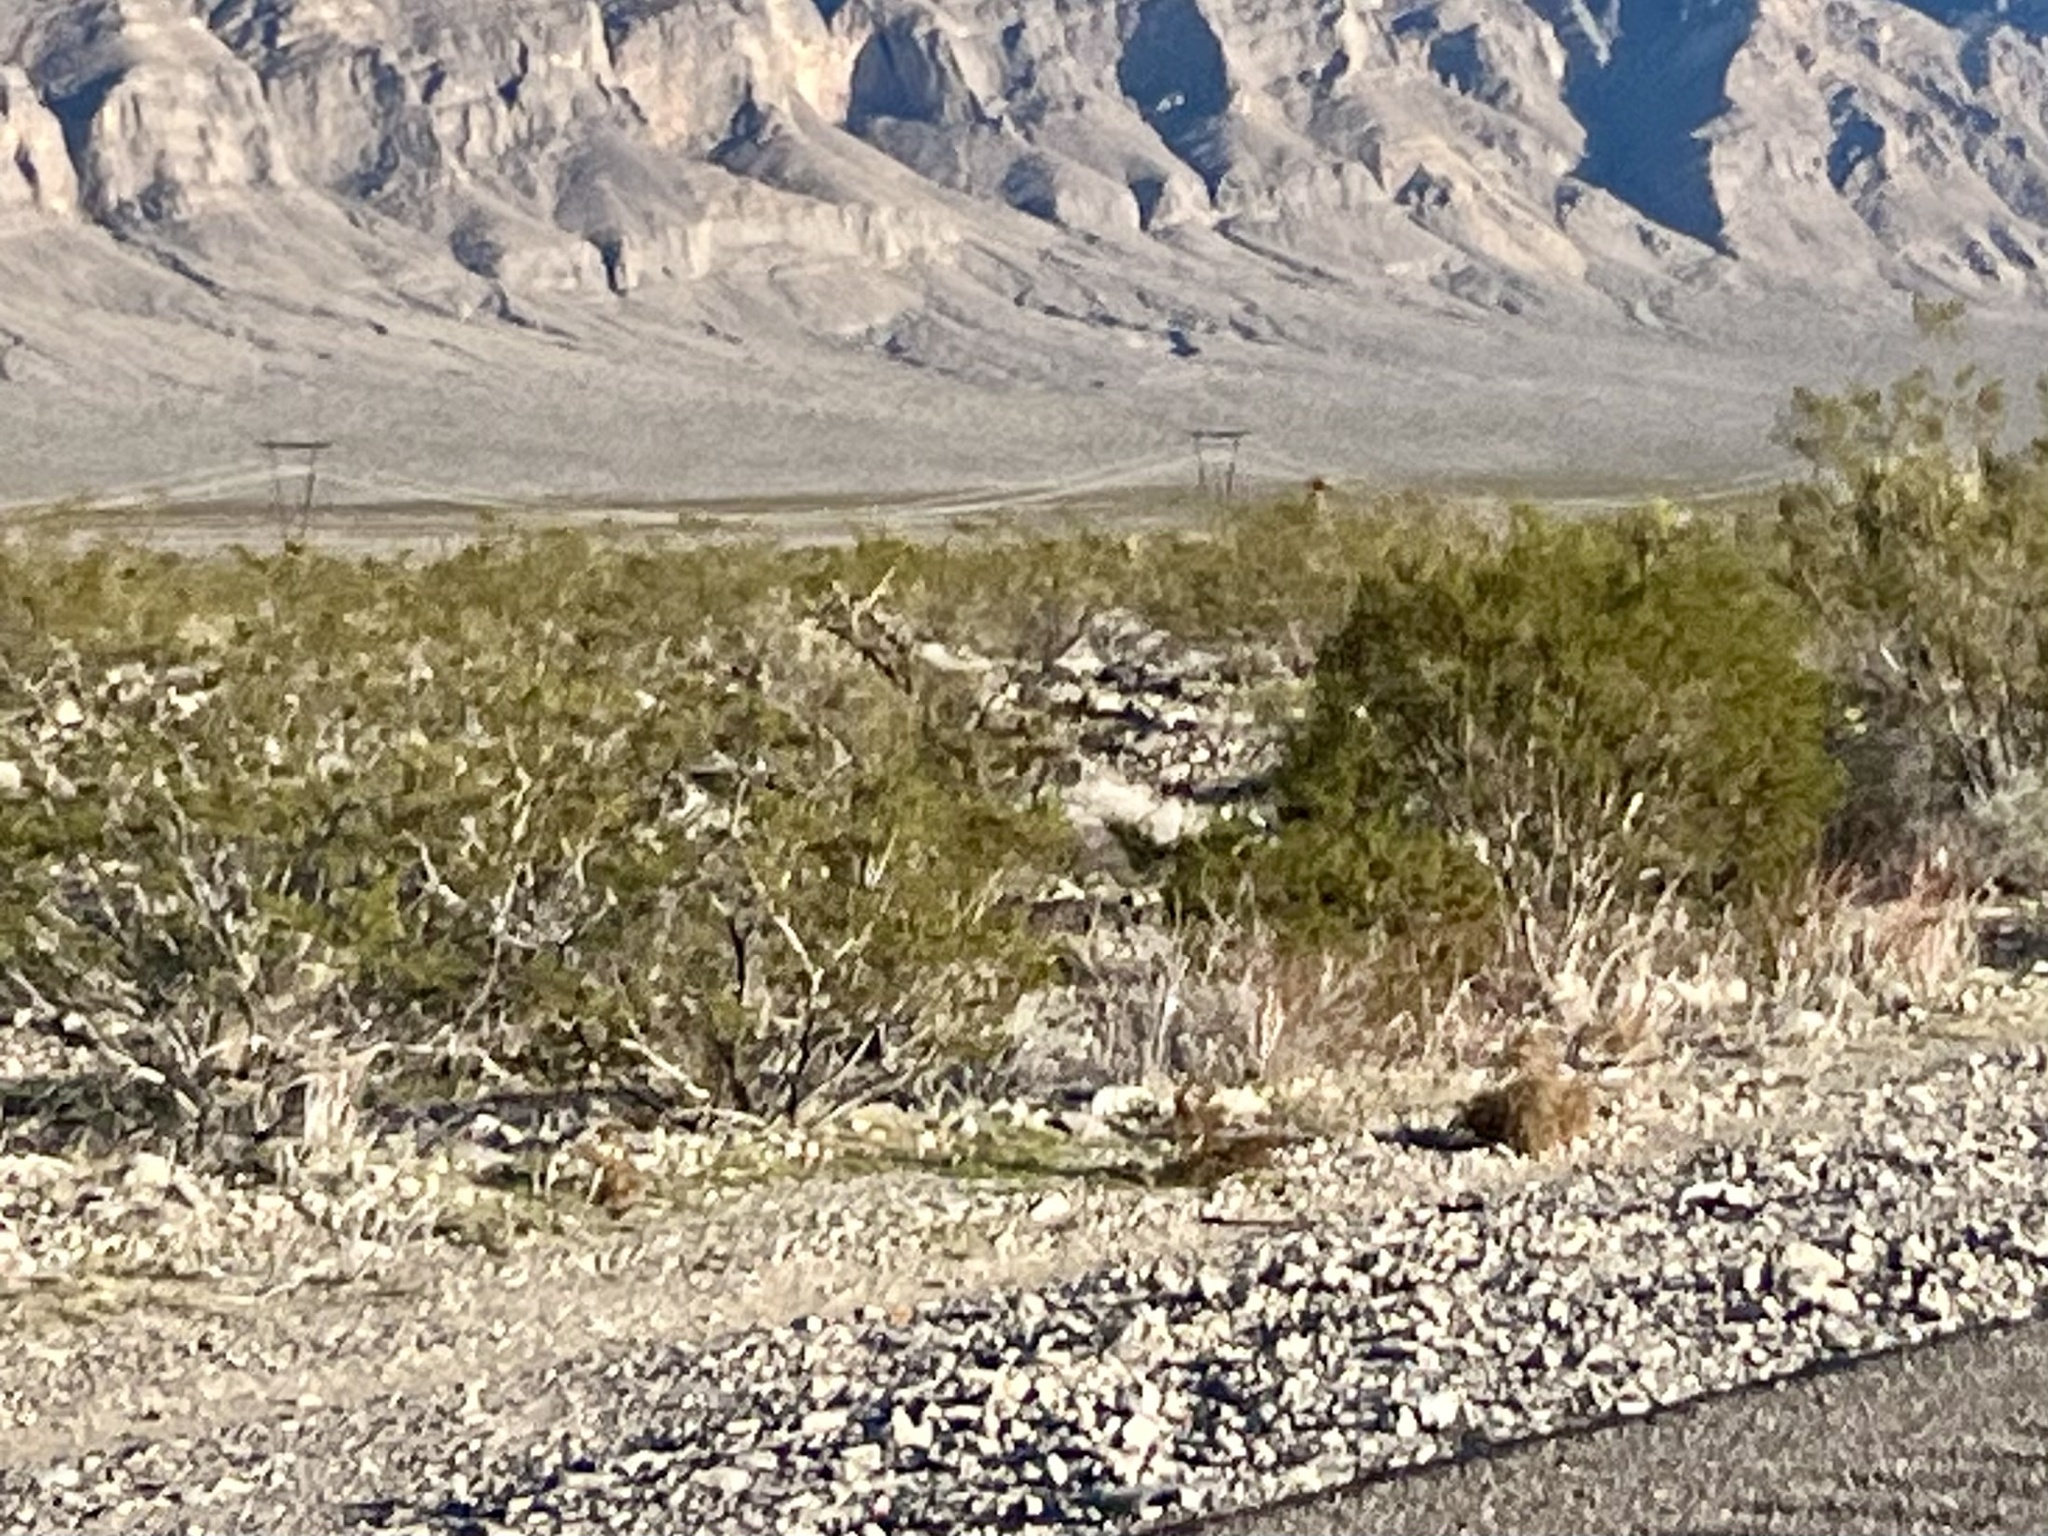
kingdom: Plantae
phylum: Tracheophyta
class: Magnoliopsida
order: Zygophyllales
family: Zygophyllaceae
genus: Larrea
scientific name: Larrea tridentata
